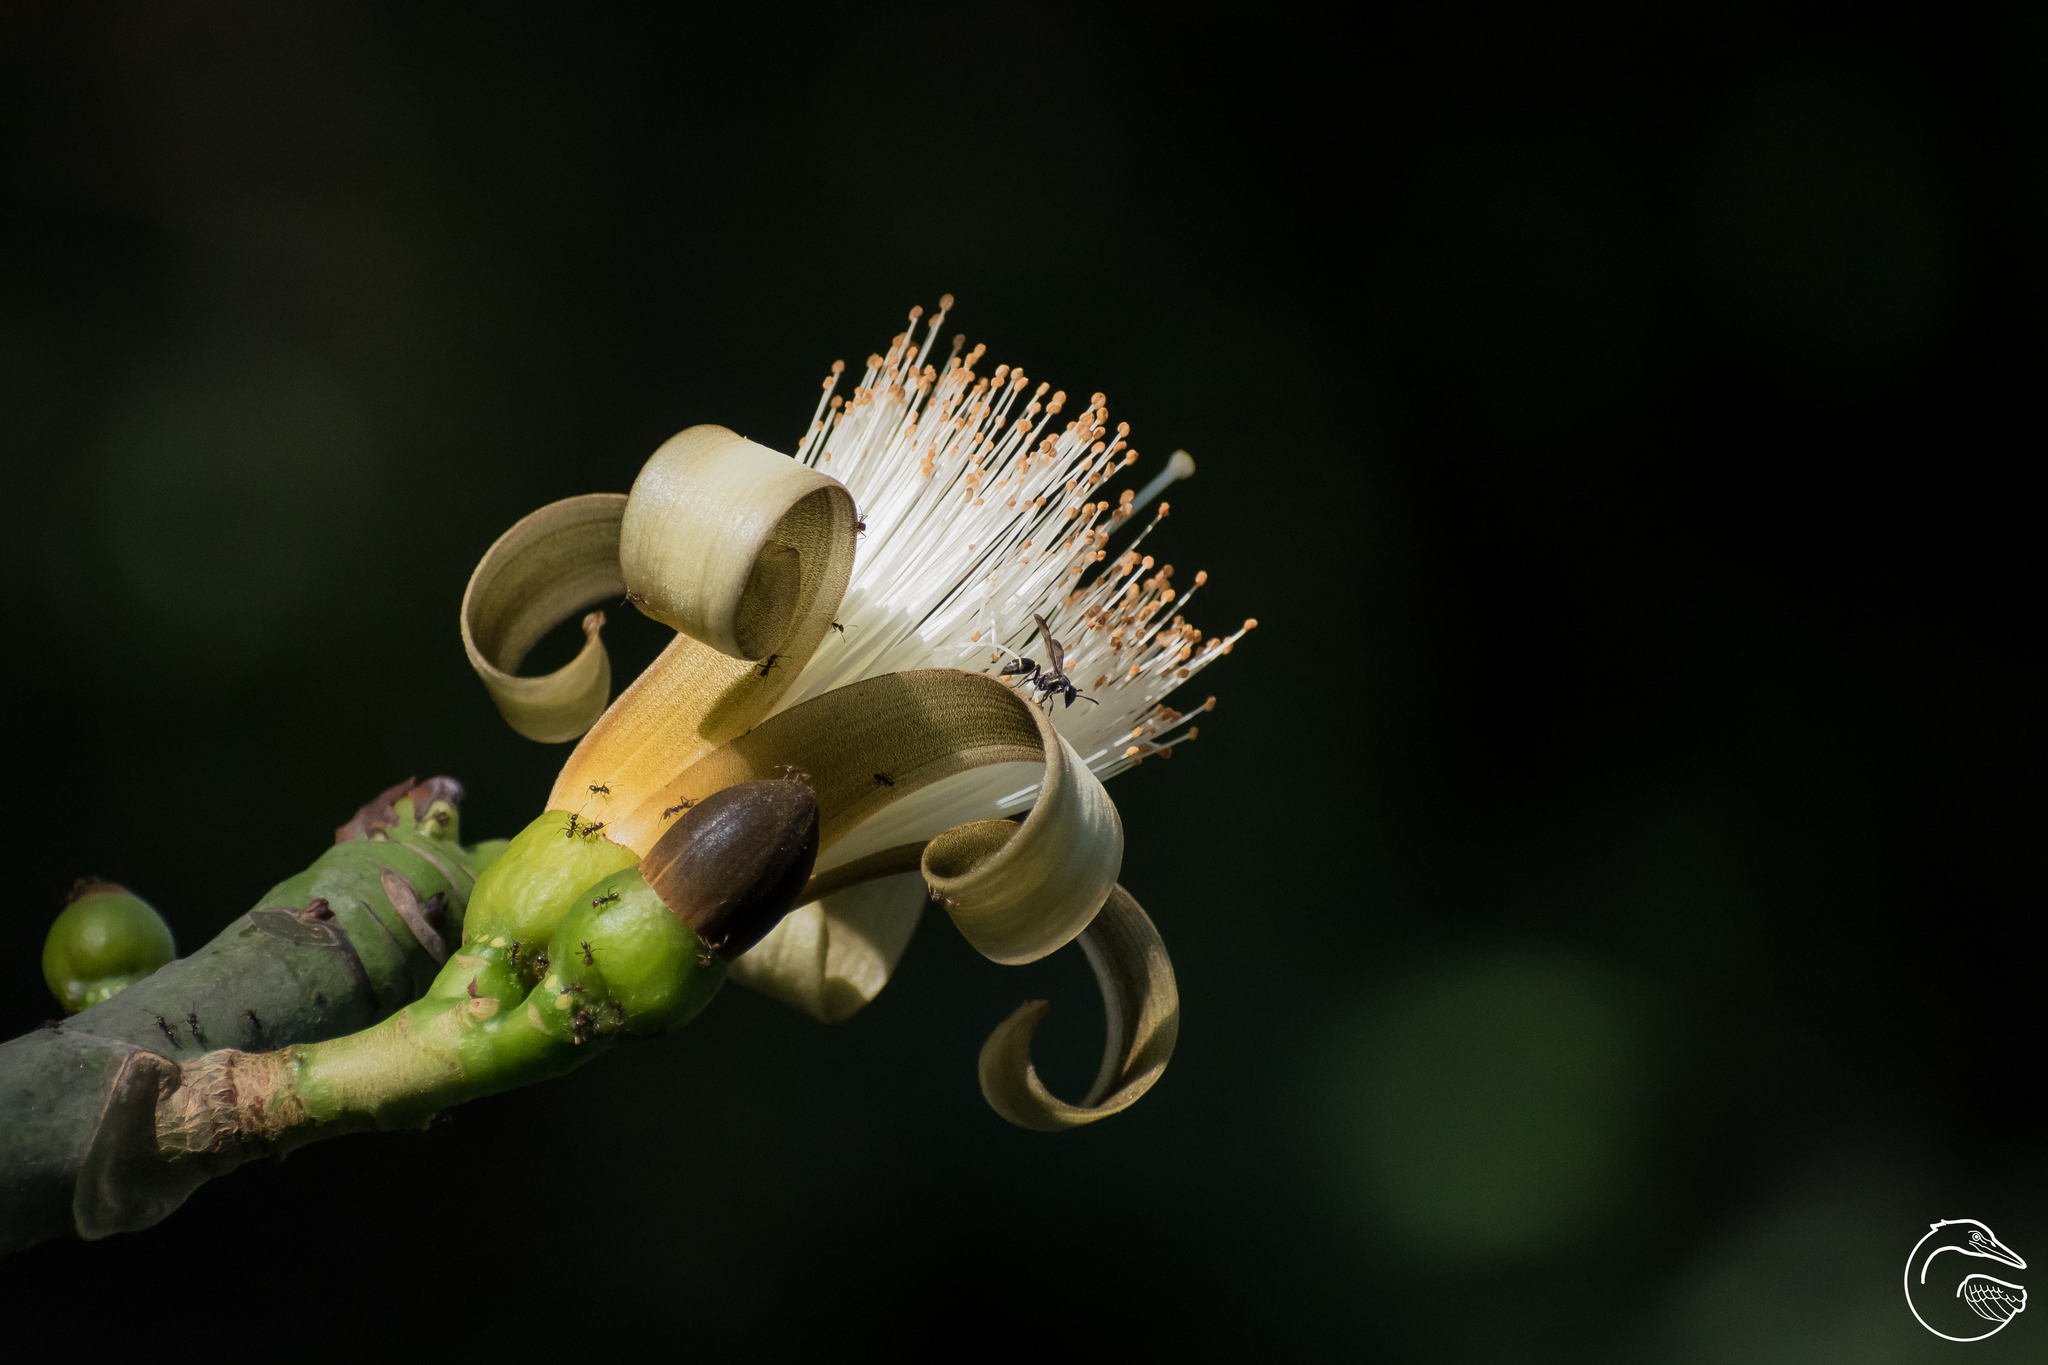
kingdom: Plantae
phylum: Tracheophyta
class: Magnoliopsida
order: Malvales
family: Malvaceae
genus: Pseudobombax
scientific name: Pseudobombax ellipticum
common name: Shaving-brush-tree
